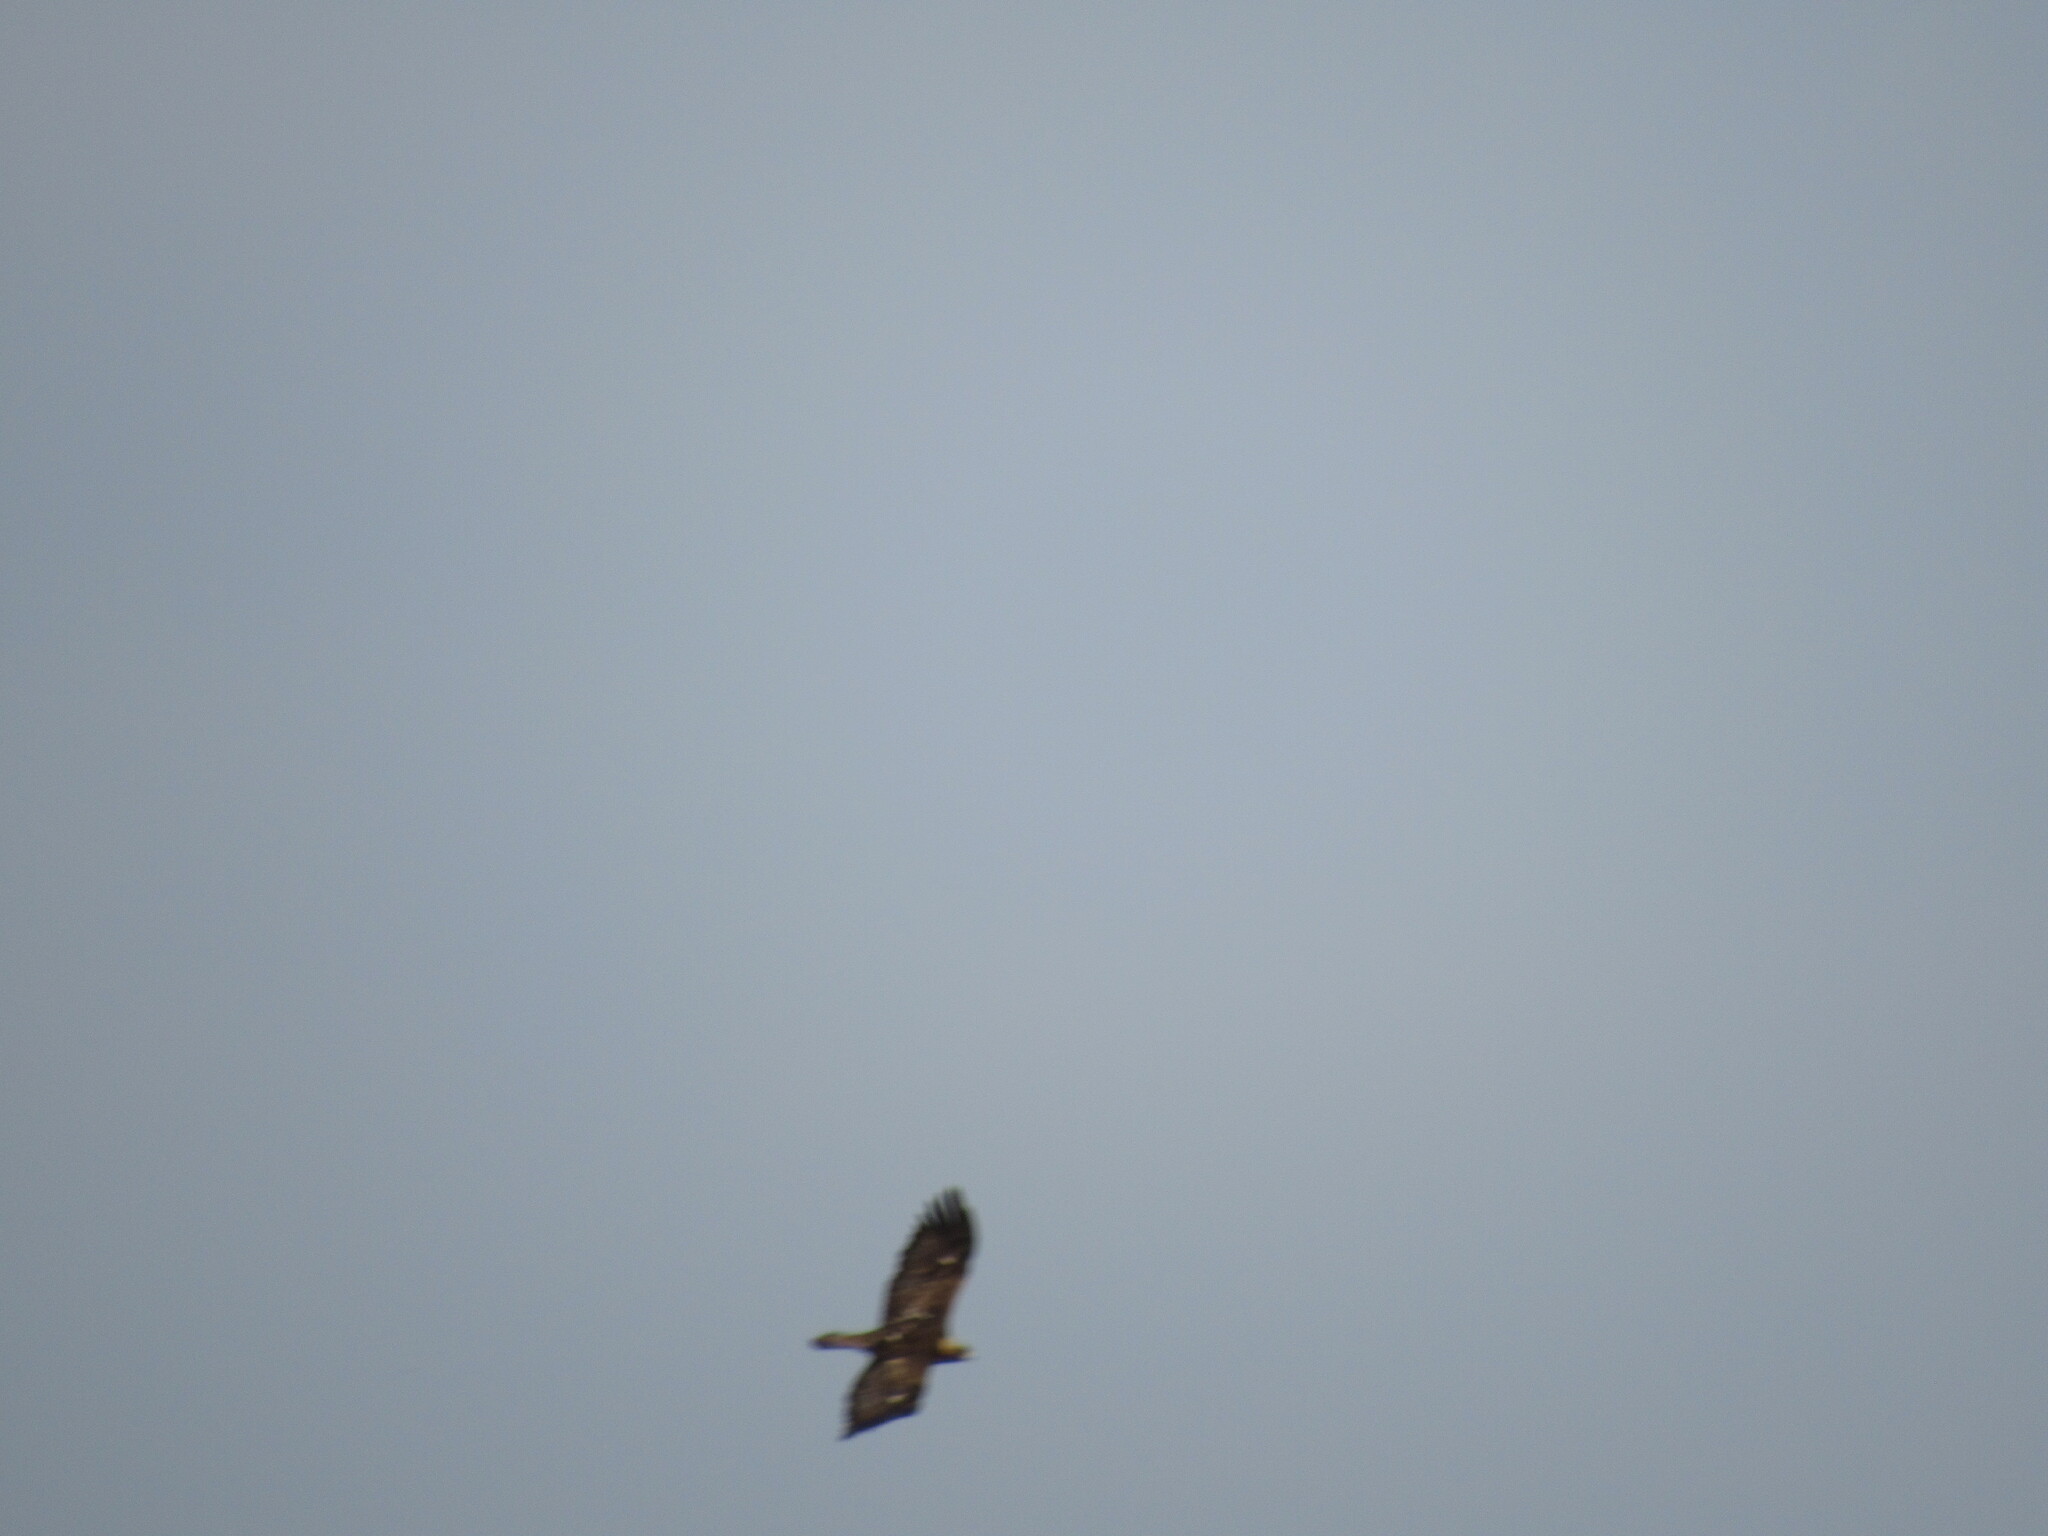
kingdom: Animalia
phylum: Chordata
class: Aves
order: Accipitriformes
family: Accipitridae
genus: Aquila
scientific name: Aquila chrysaetos
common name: Golden eagle
